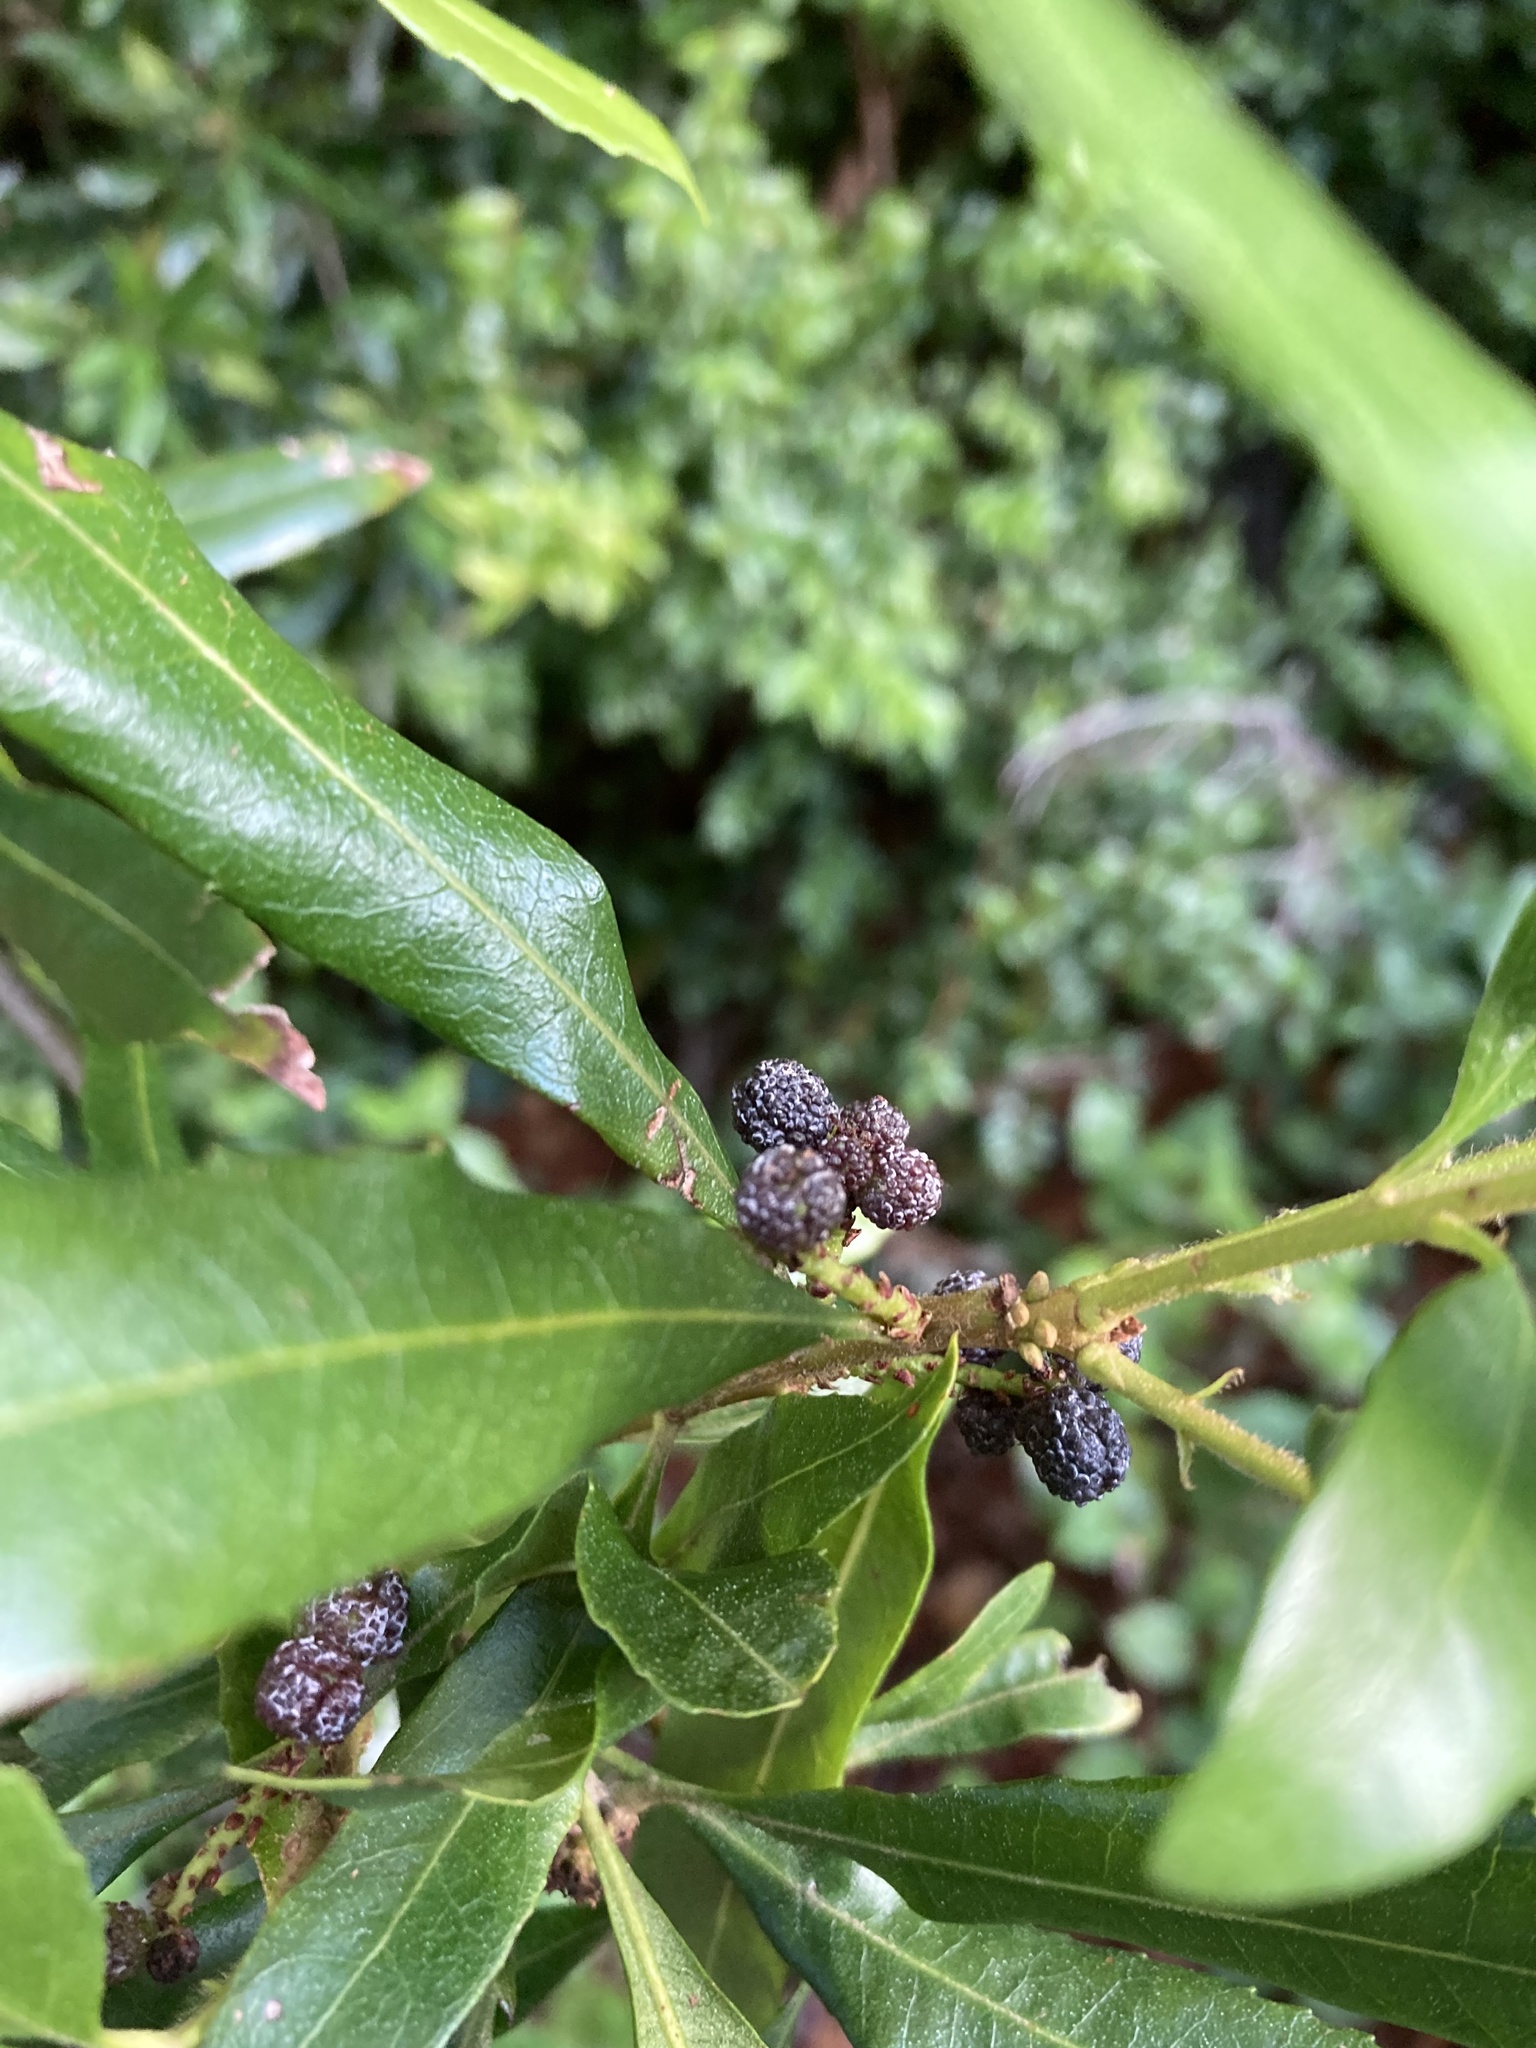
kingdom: Plantae
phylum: Tracheophyta
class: Magnoliopsida
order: Fagales
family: Myricaceae
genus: Morella
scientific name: Morella californica
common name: California wax-myrtle
